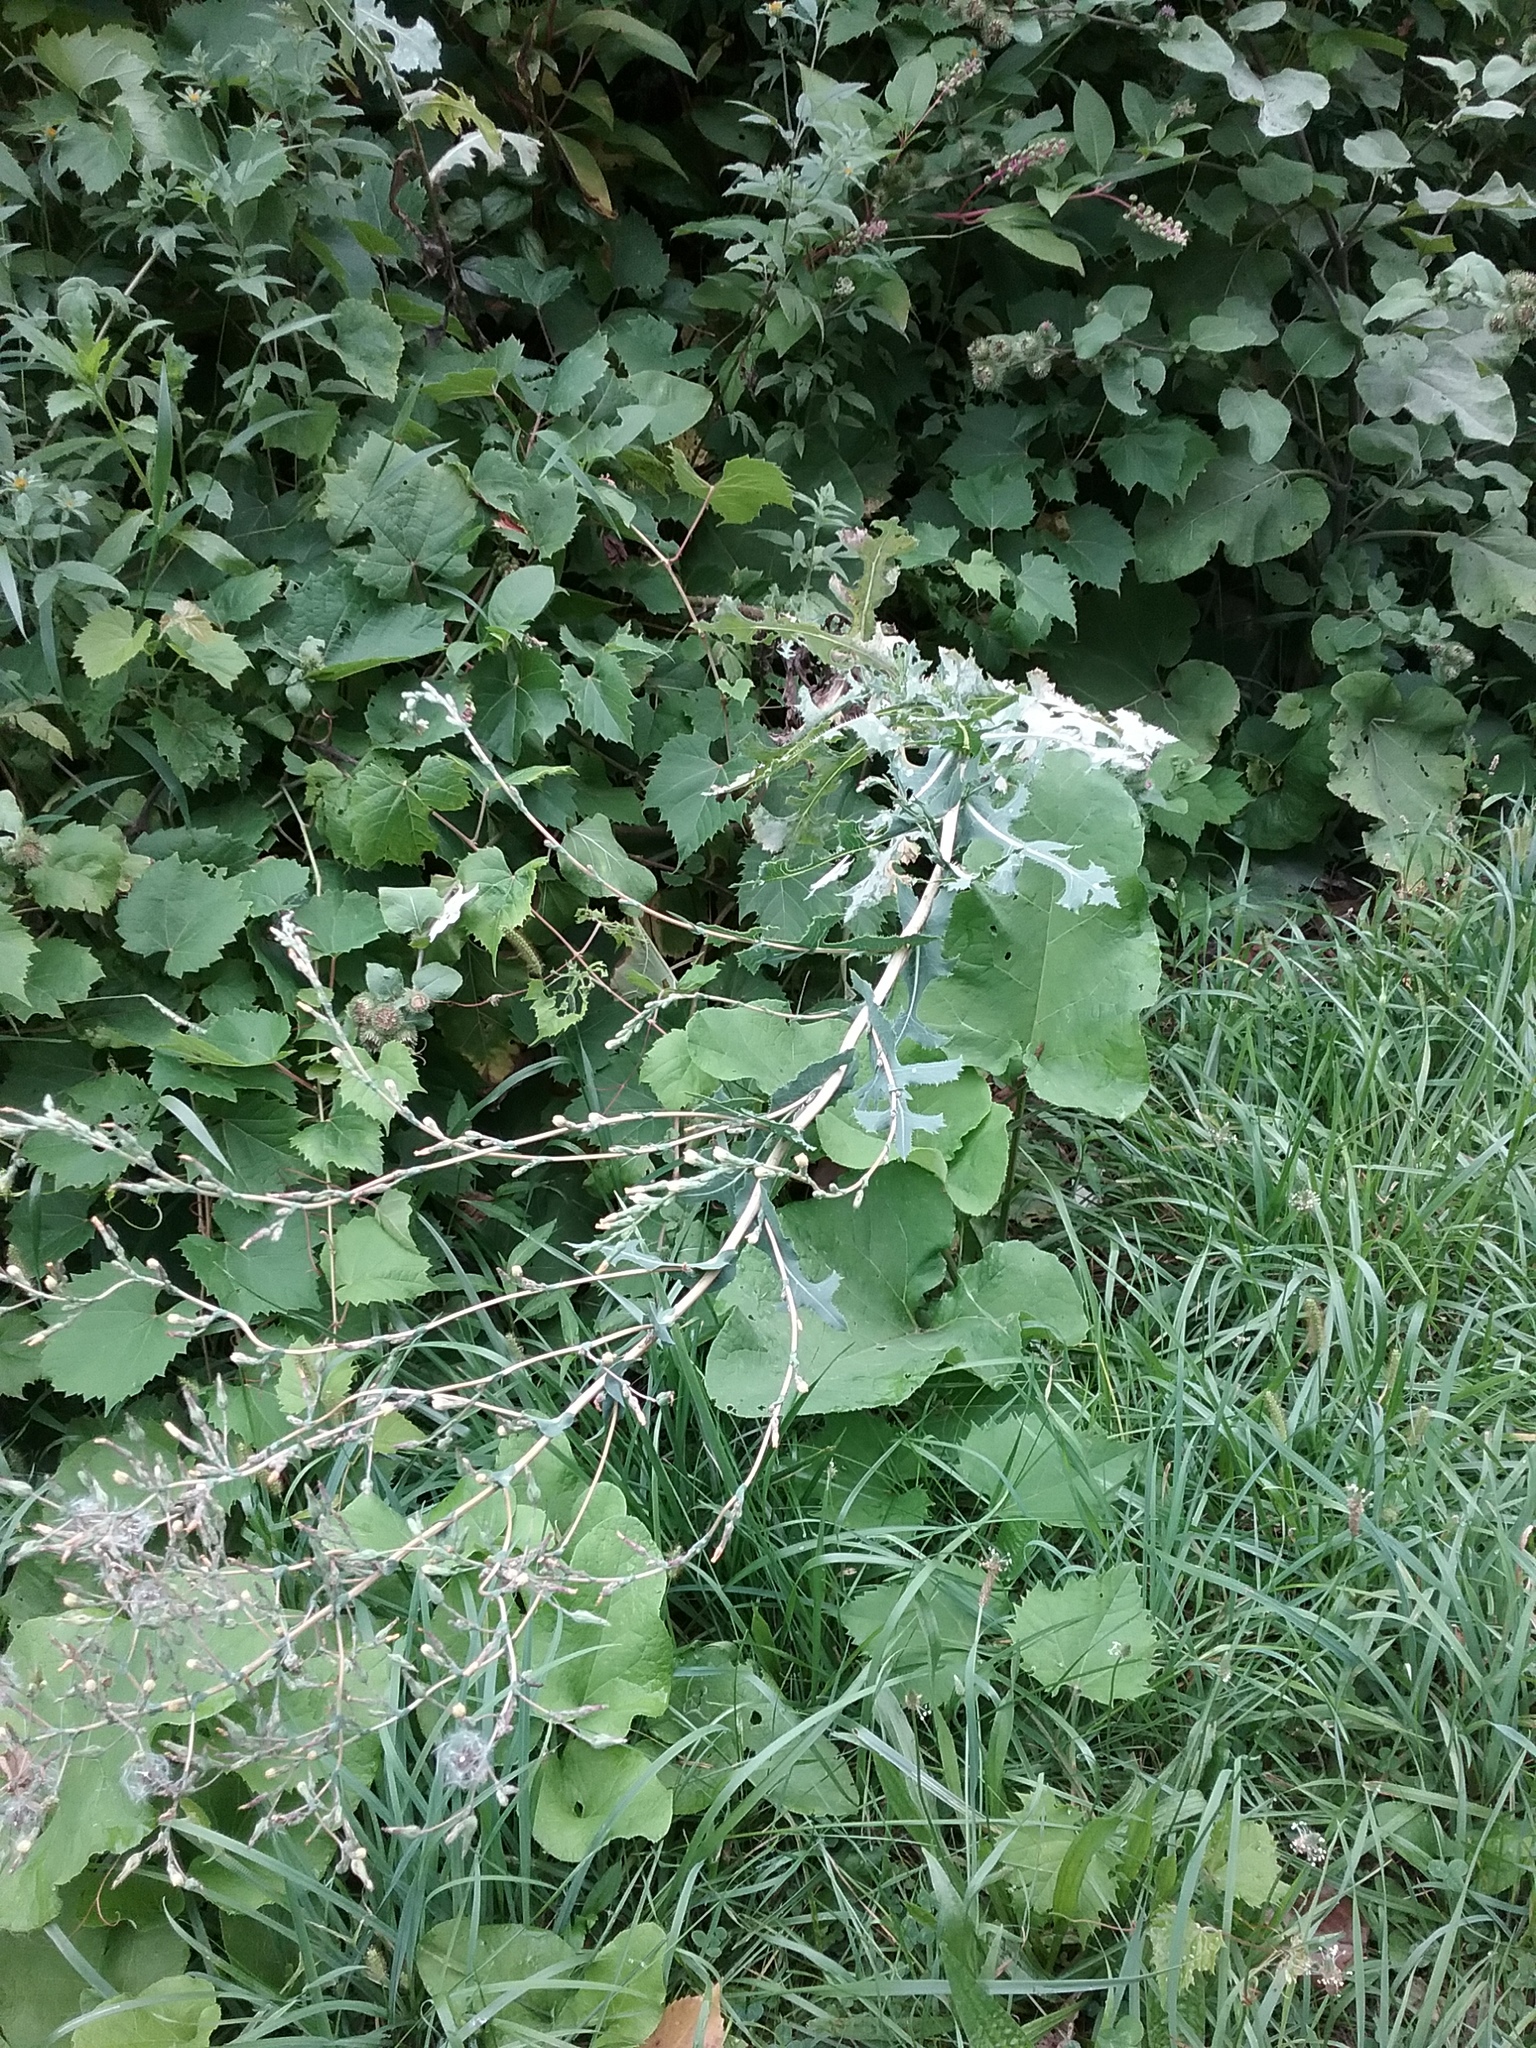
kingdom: Plantae
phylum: Tracheophyta
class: Magnoliopsida
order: Asterales
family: Asteraceae
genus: Lactuca
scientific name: Lactuca serriola
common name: Prickly lettuce
